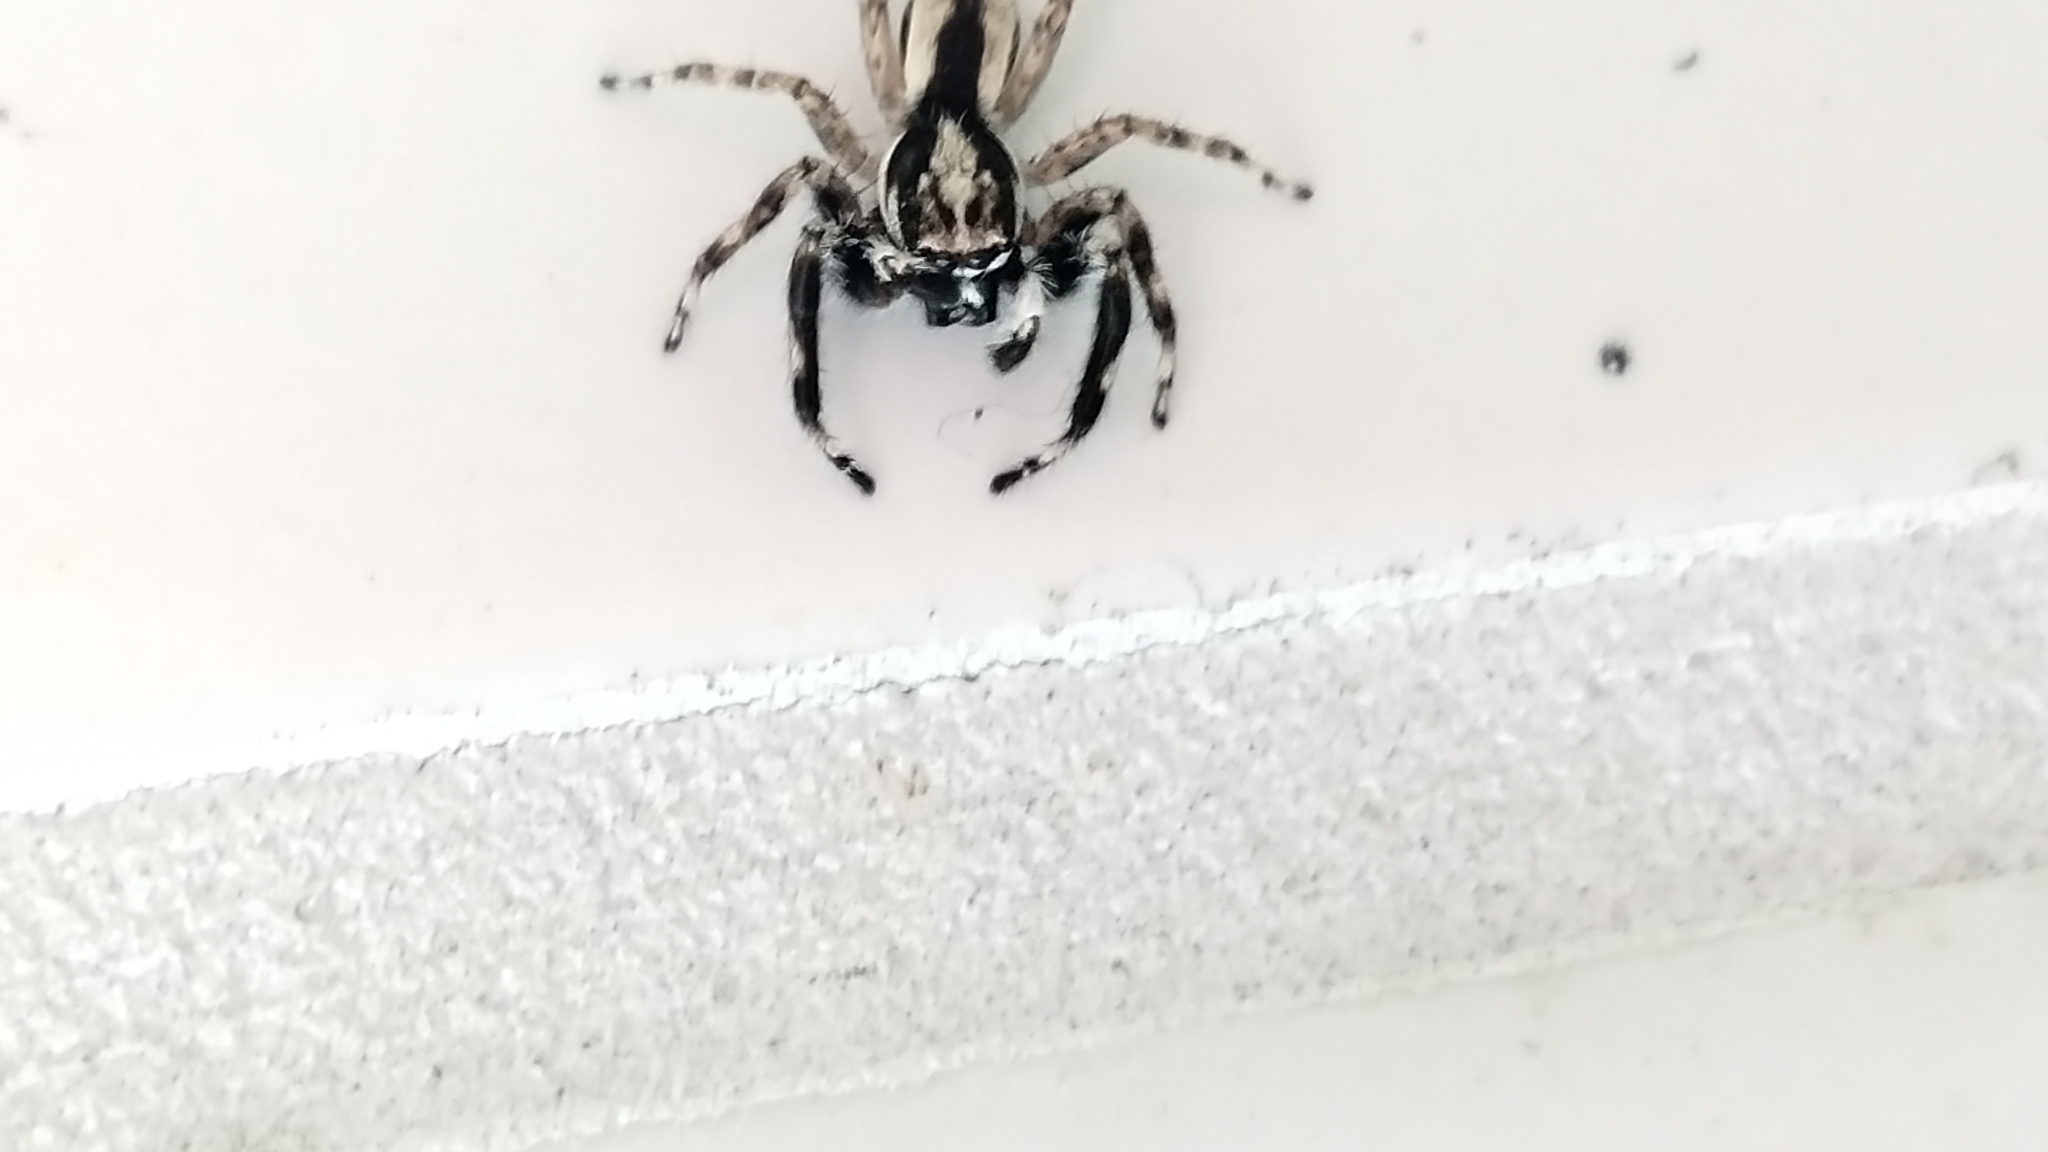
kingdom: Animalia
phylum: Arthropoda
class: Arachnida
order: Araneae
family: Salticidae
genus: Menemerus
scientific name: Menemerus bivittatus
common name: Gray wall jumper
